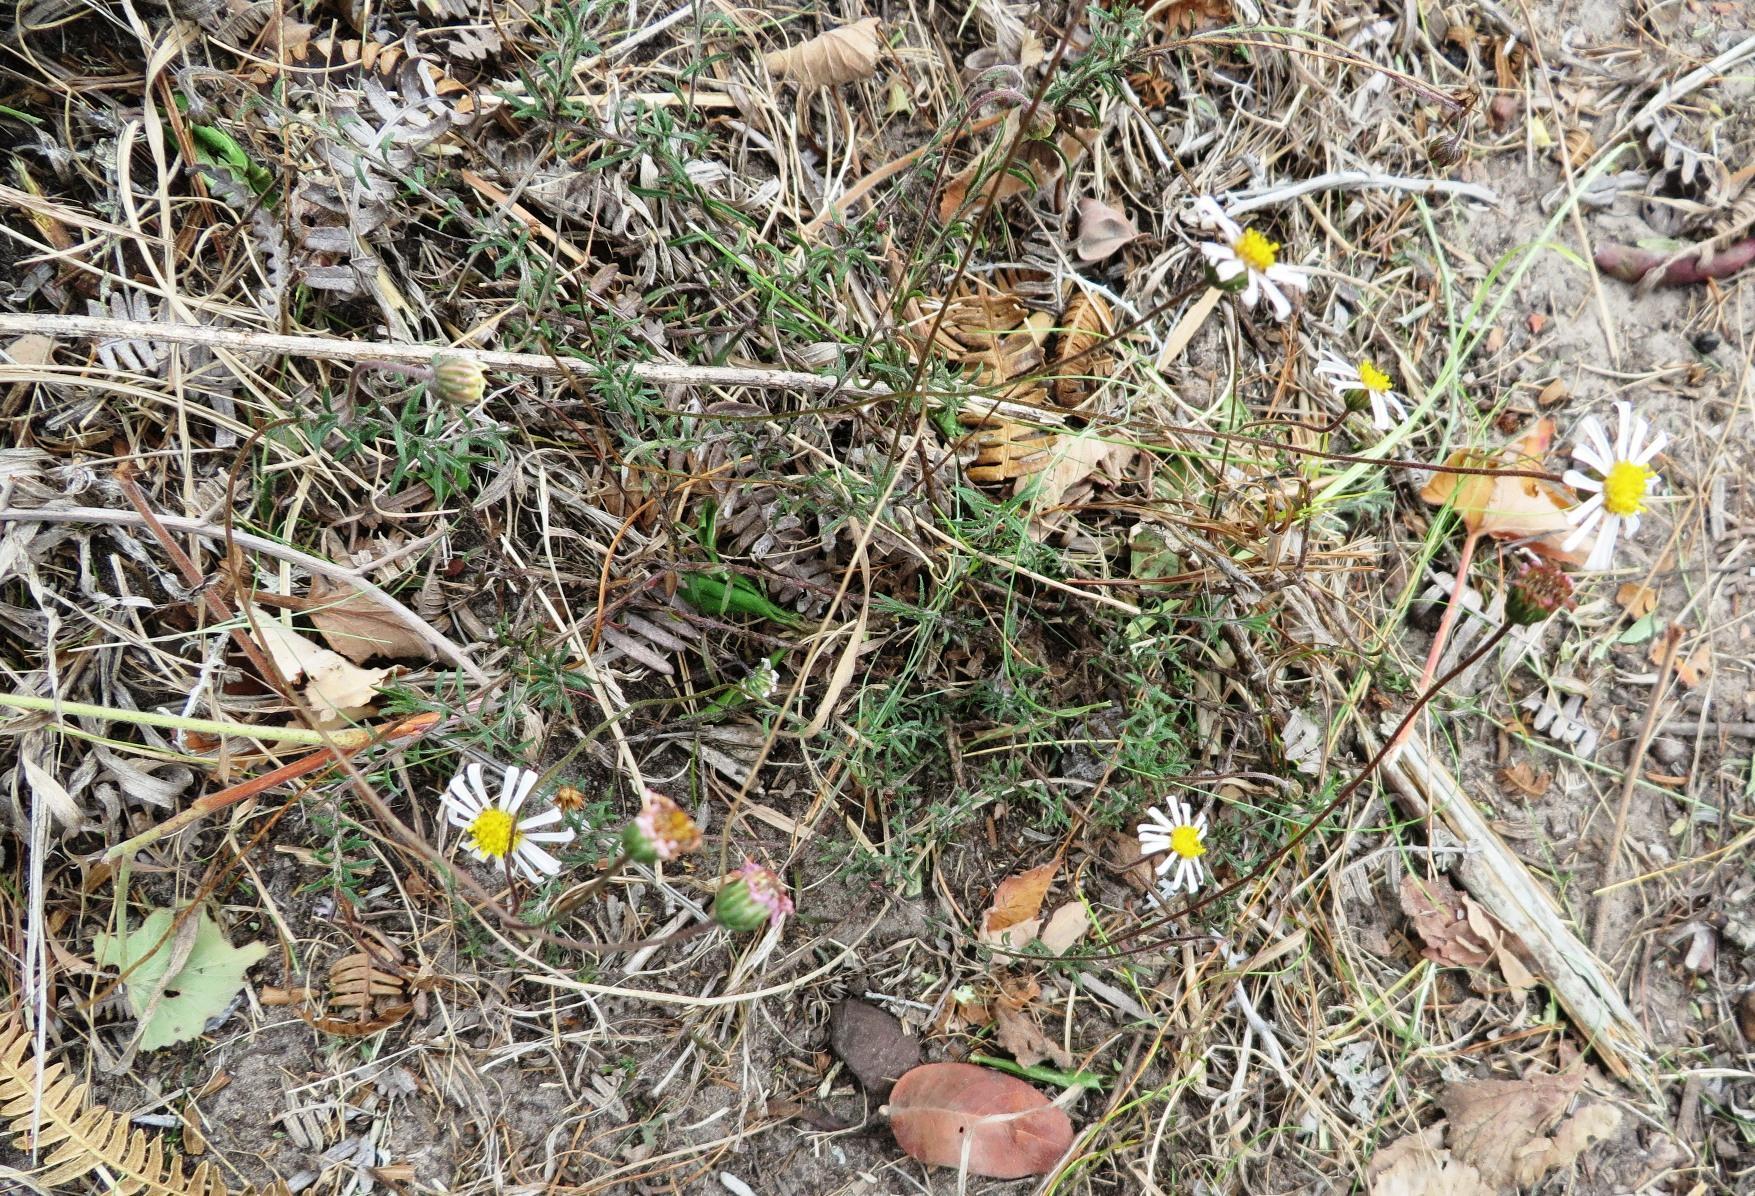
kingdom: Plantae
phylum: Tracheophyta
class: Magnoliopsida
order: Asterales
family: Asteraceae
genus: Felicia
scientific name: Felicia hyssopifolia
